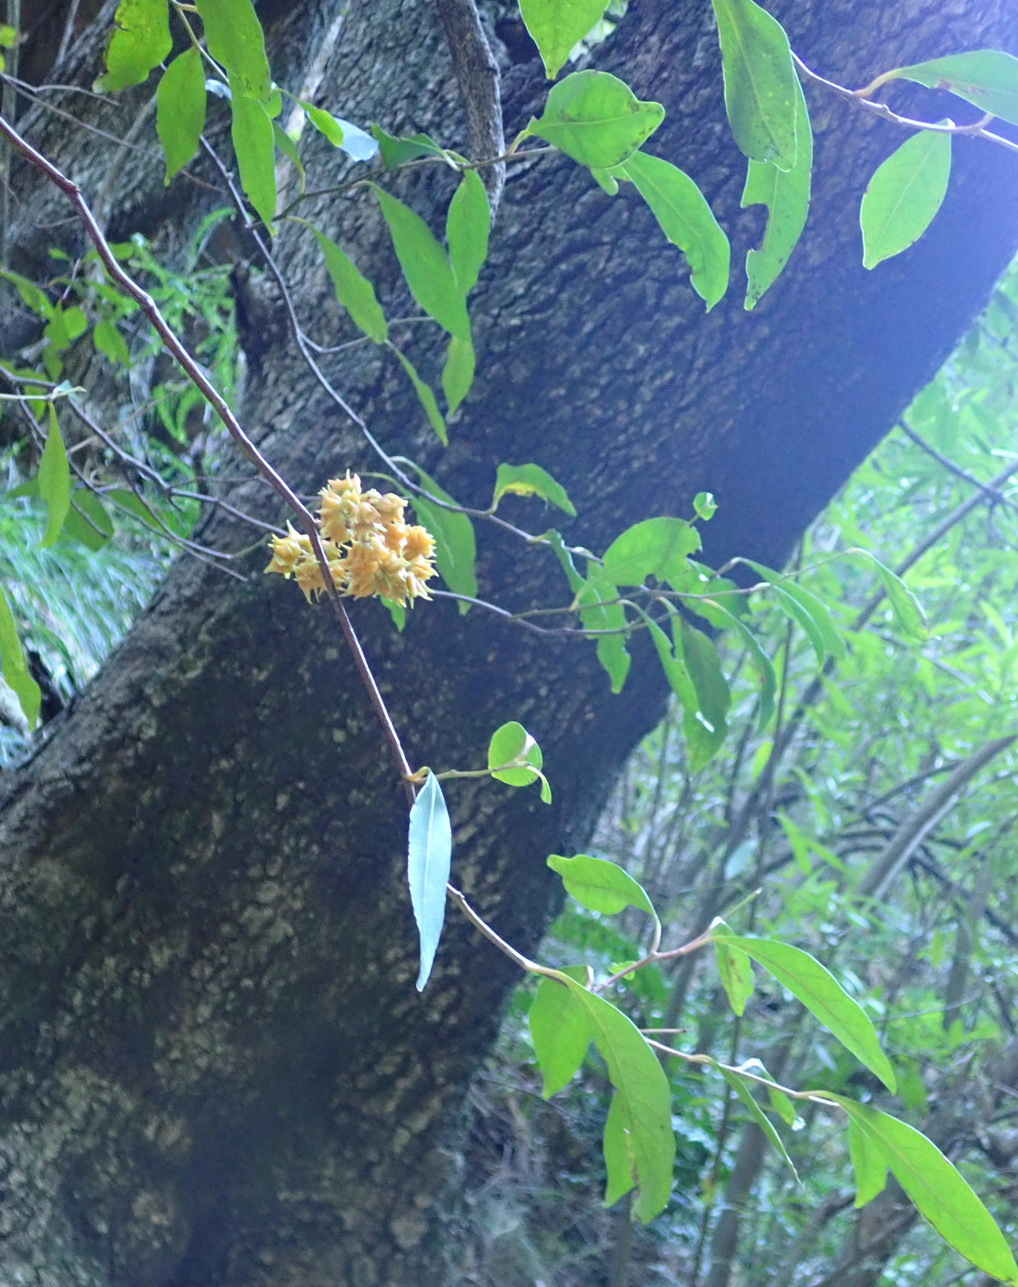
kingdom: Plantae
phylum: Tracheophyta
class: Magnoliopsida
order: Celastrales
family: Celastraceae
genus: Pterocelastrus
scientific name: Pterocelastrus rostratus
